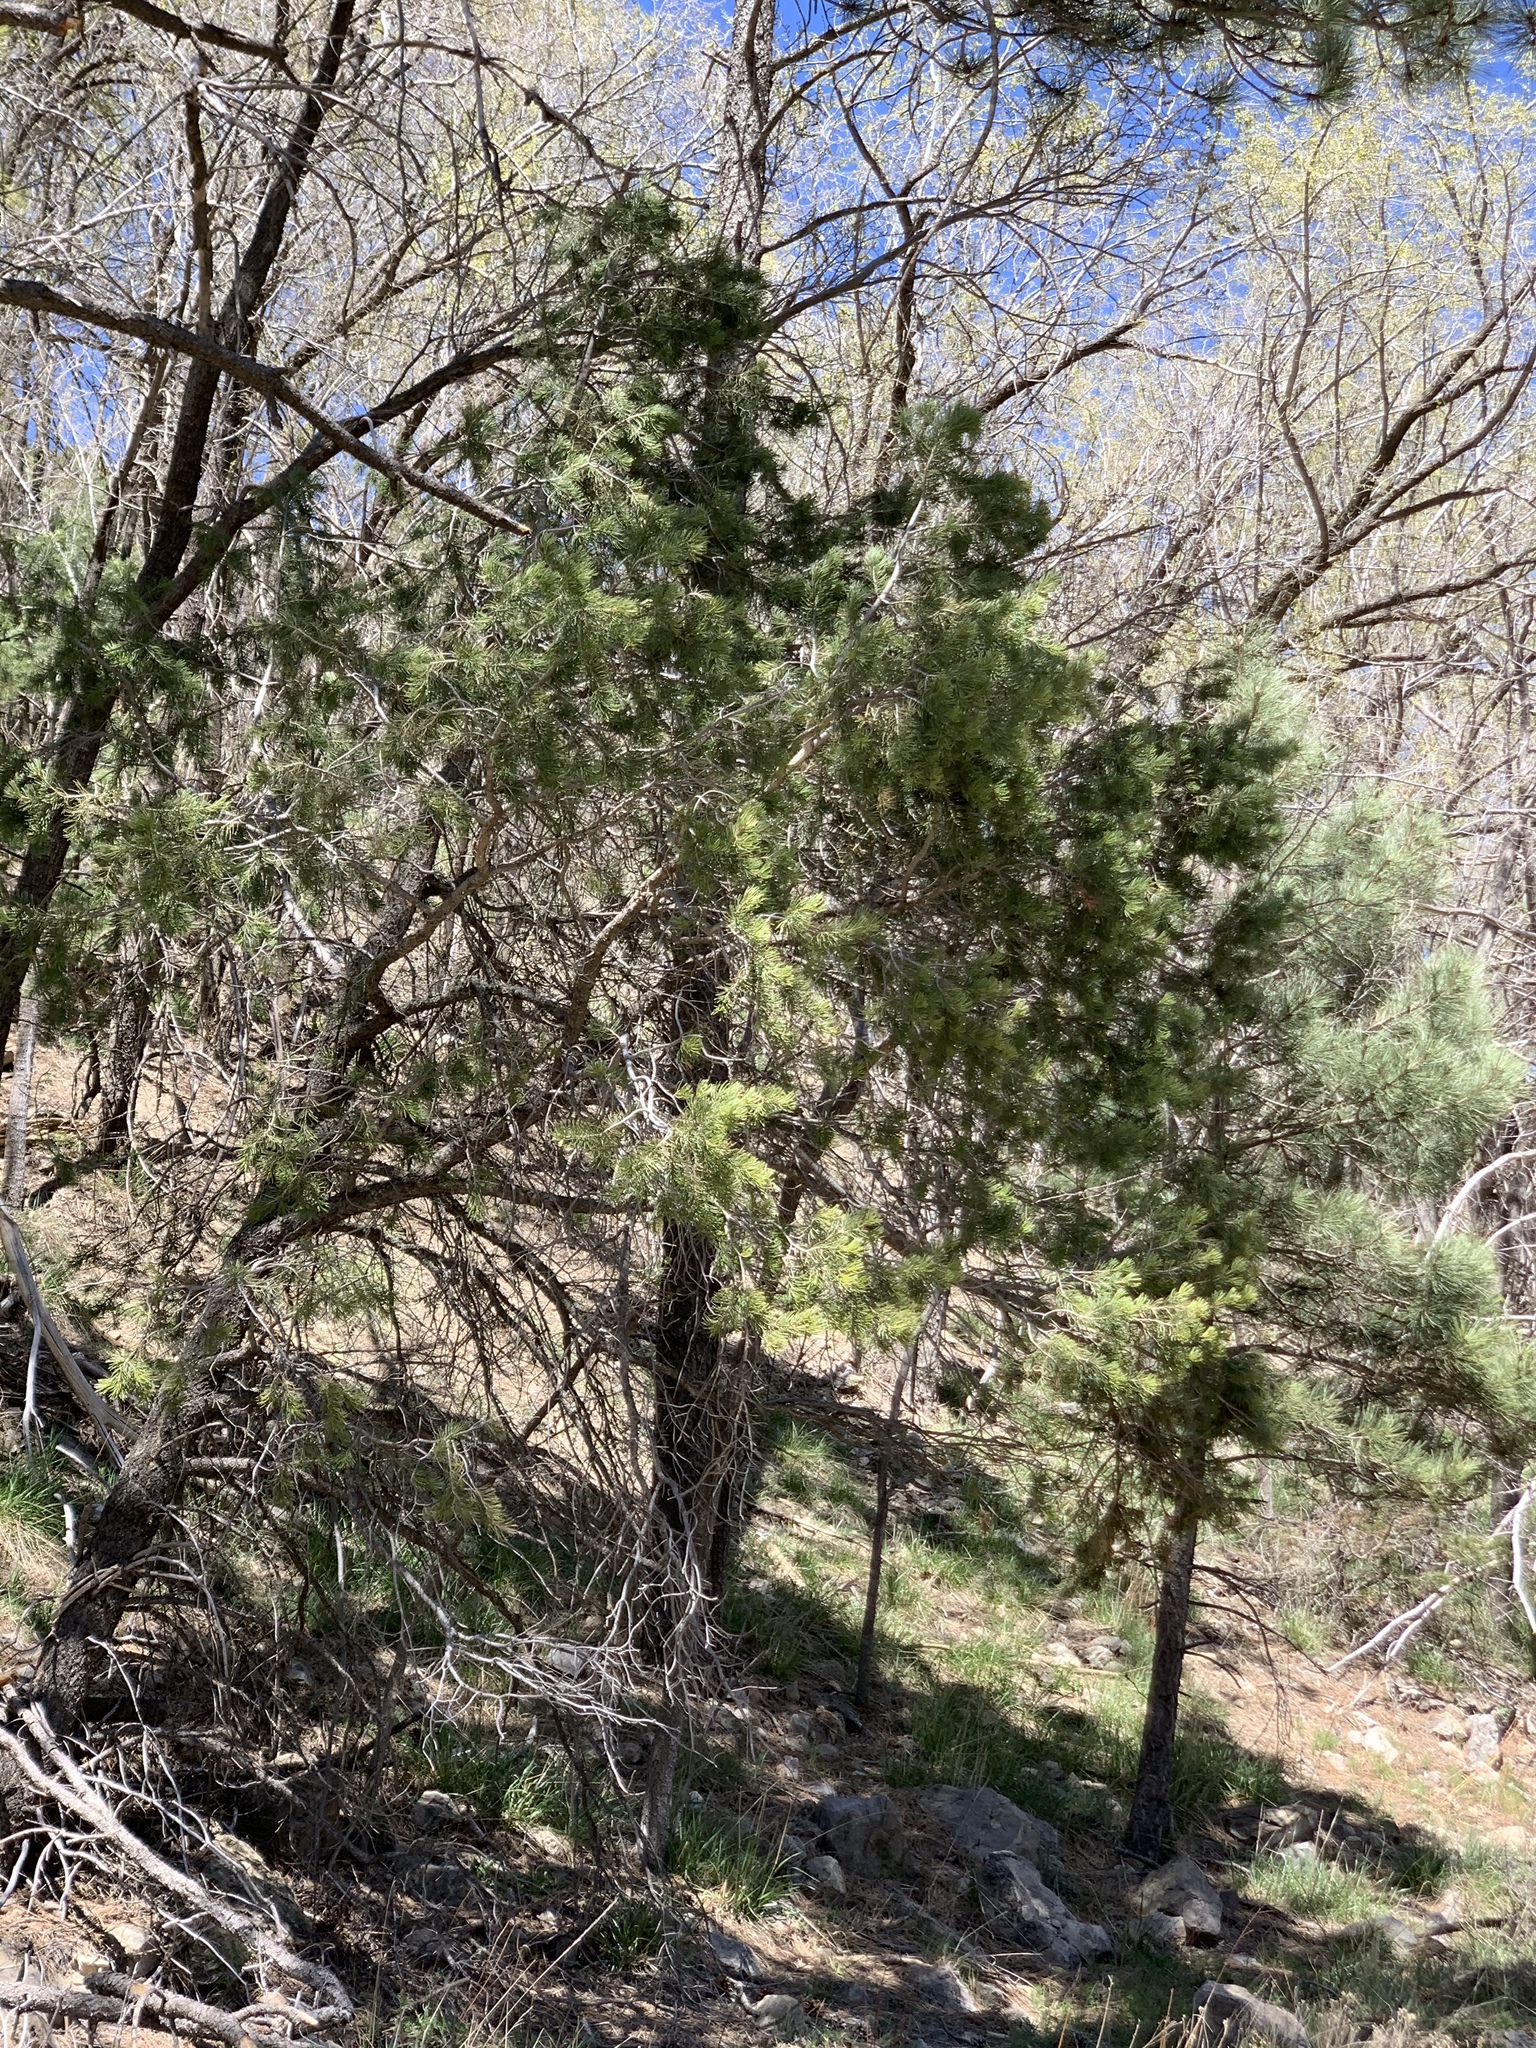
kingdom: Plantae
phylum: Tracheophyta
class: Pinopsida
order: Pinales
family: Pinaceae
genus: Pinus
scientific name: Pinus edulis
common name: Colorado pinyon
